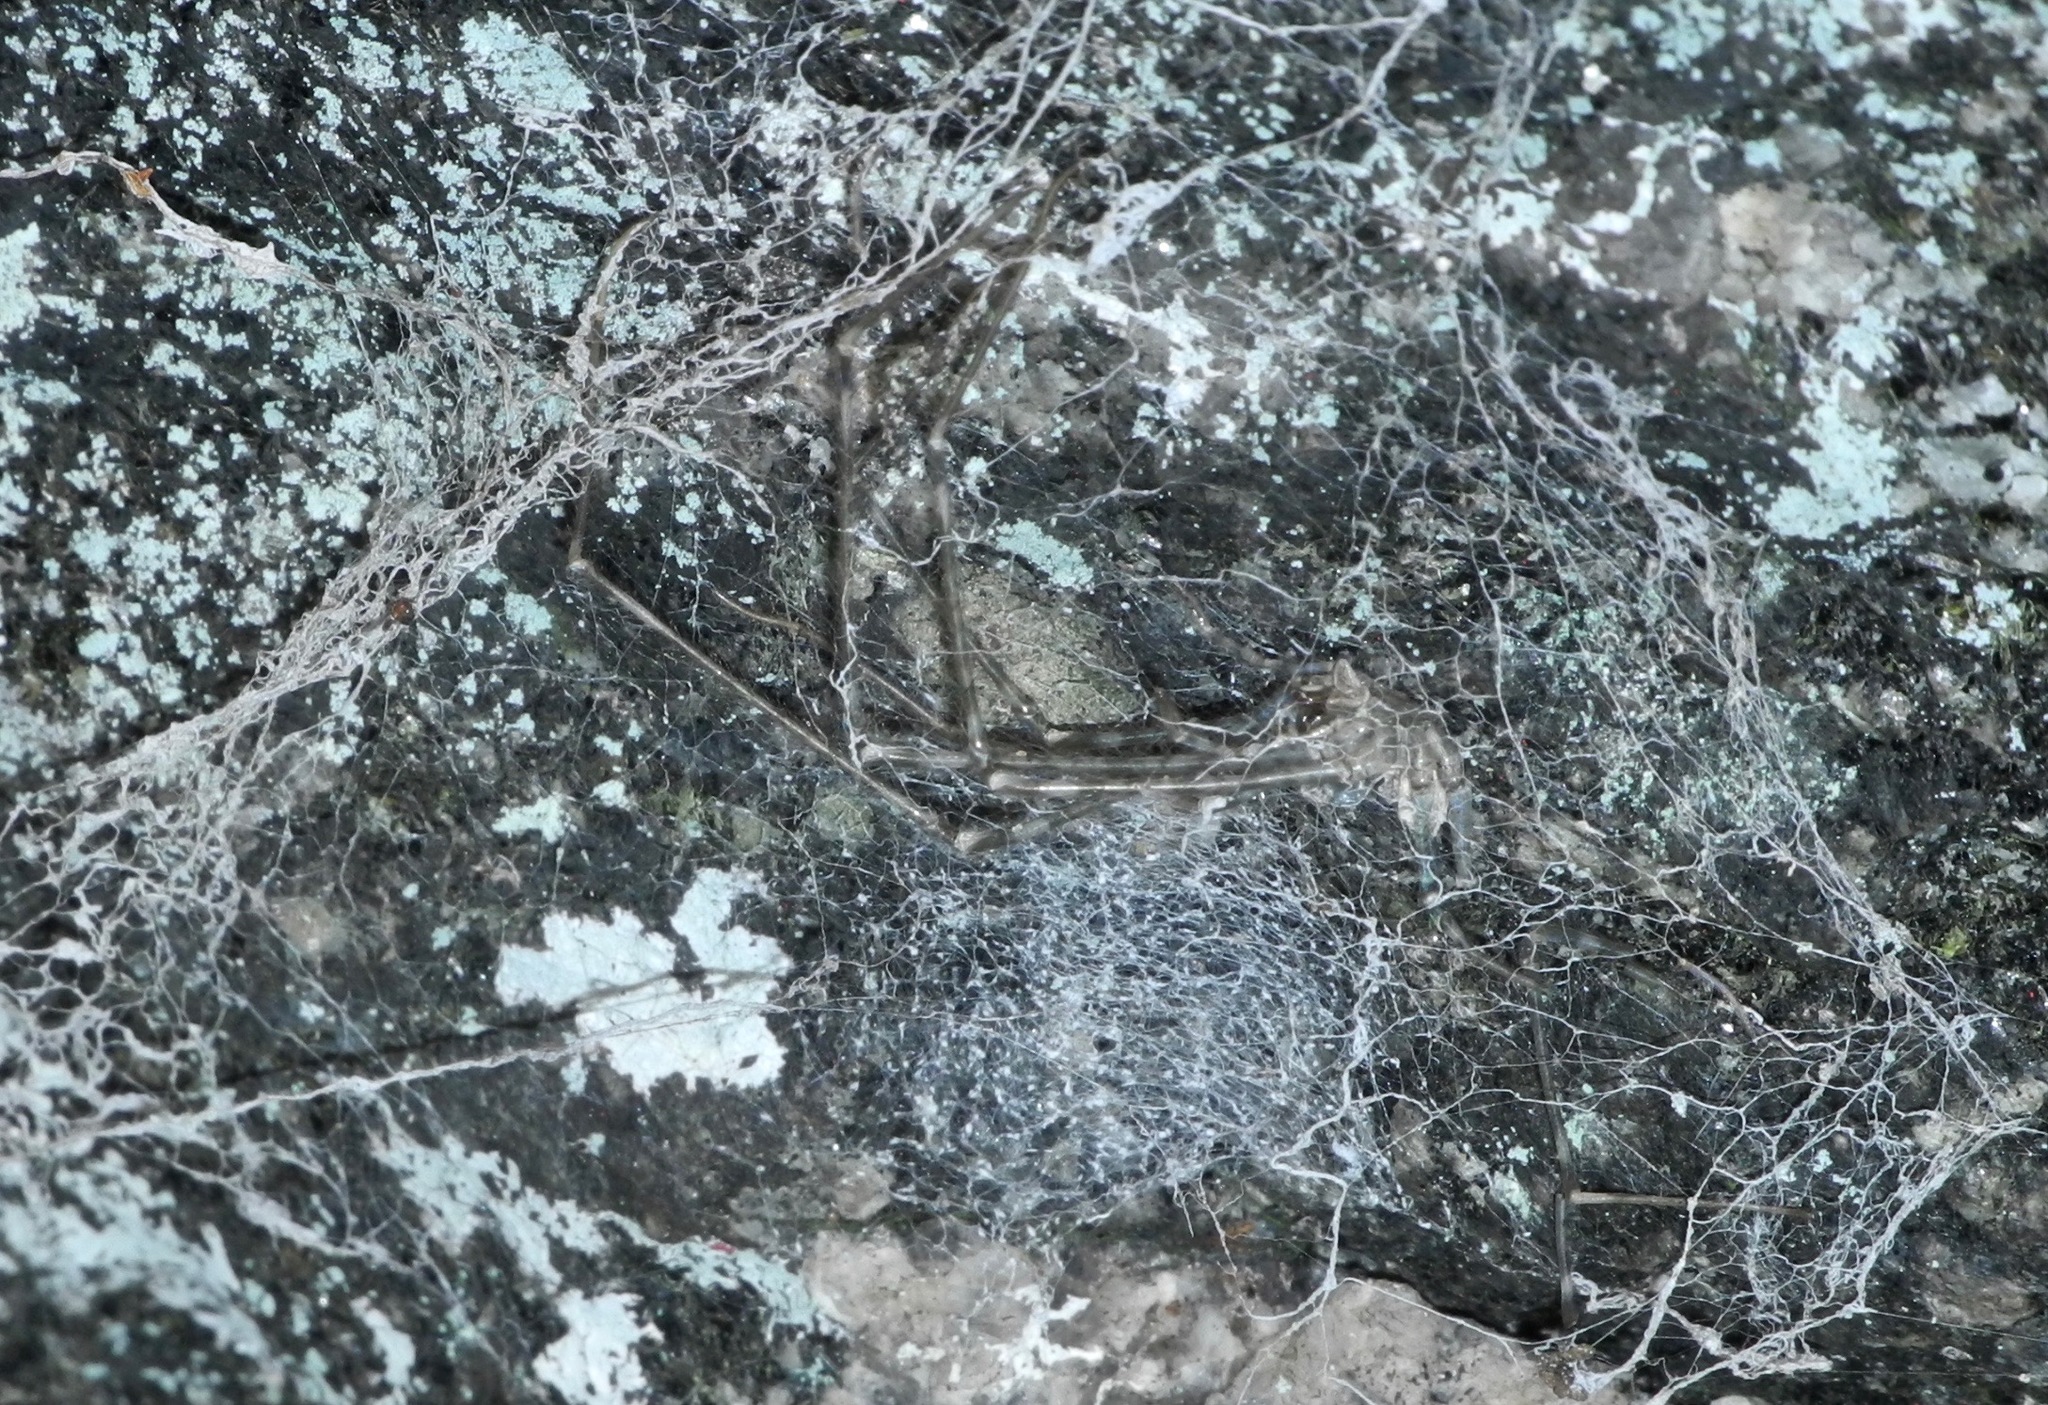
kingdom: Animalia
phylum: Arthropoda
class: Arachnida
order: Araneae
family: Hypochilidae
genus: Hypochilus
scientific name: Hypochilus pococki
